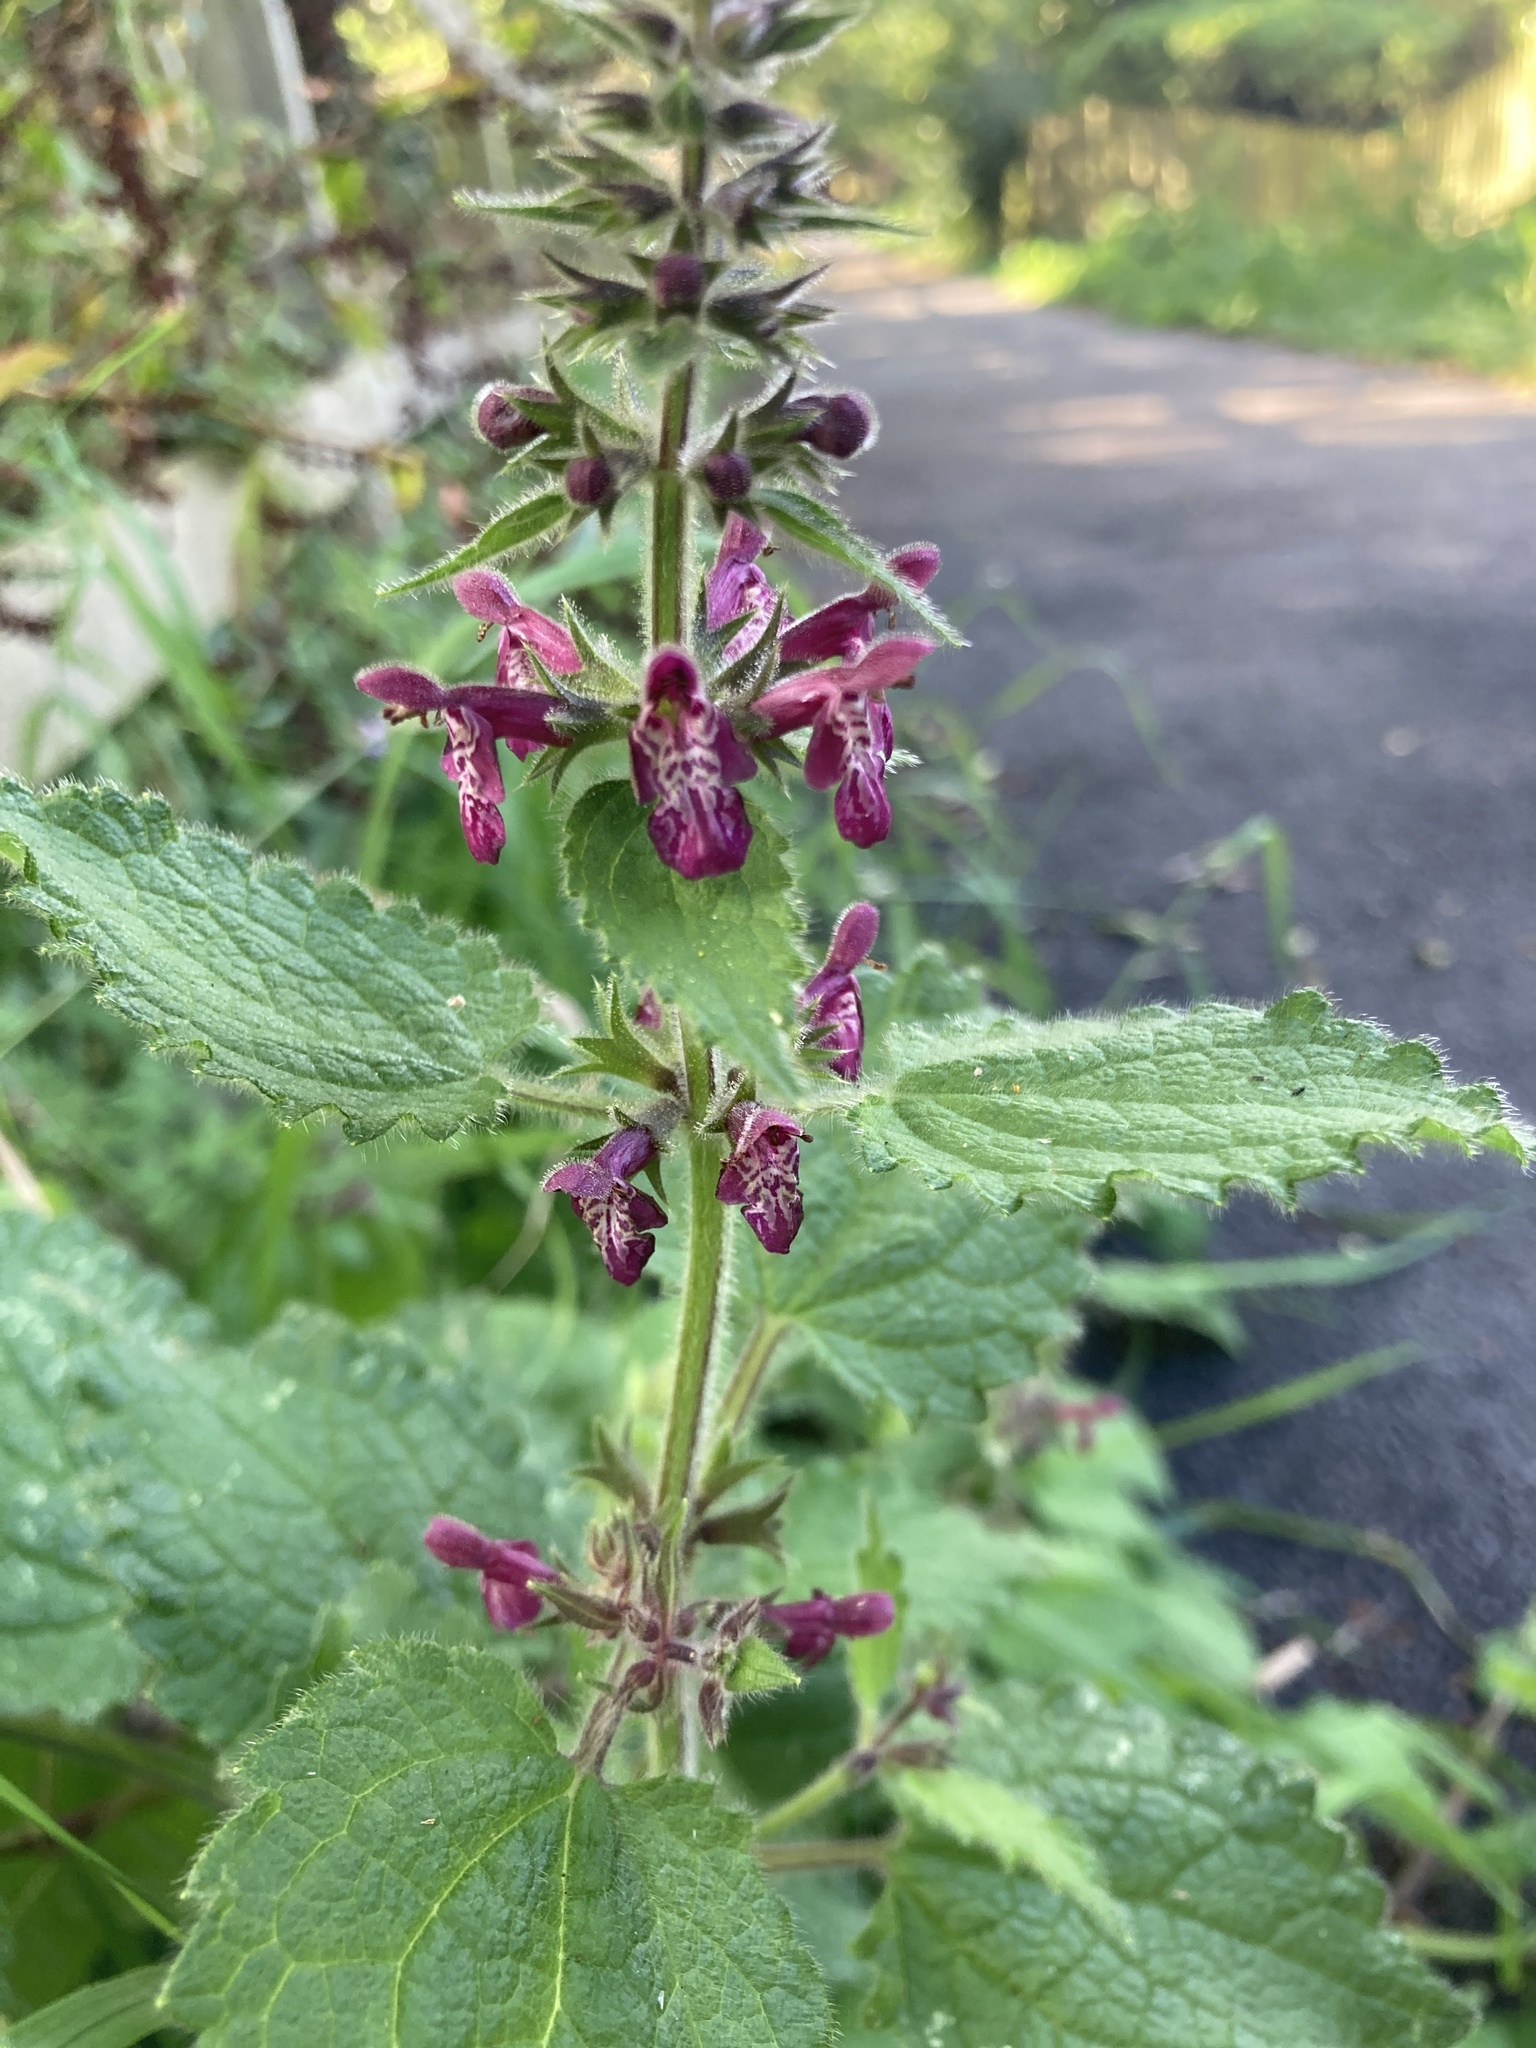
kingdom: Plantae
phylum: Tracheophyta
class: Magnoliopsida
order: Lamiales
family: Lamiaceae
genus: Stachys
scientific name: Stachys sylvatica
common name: Hedge woundwort
